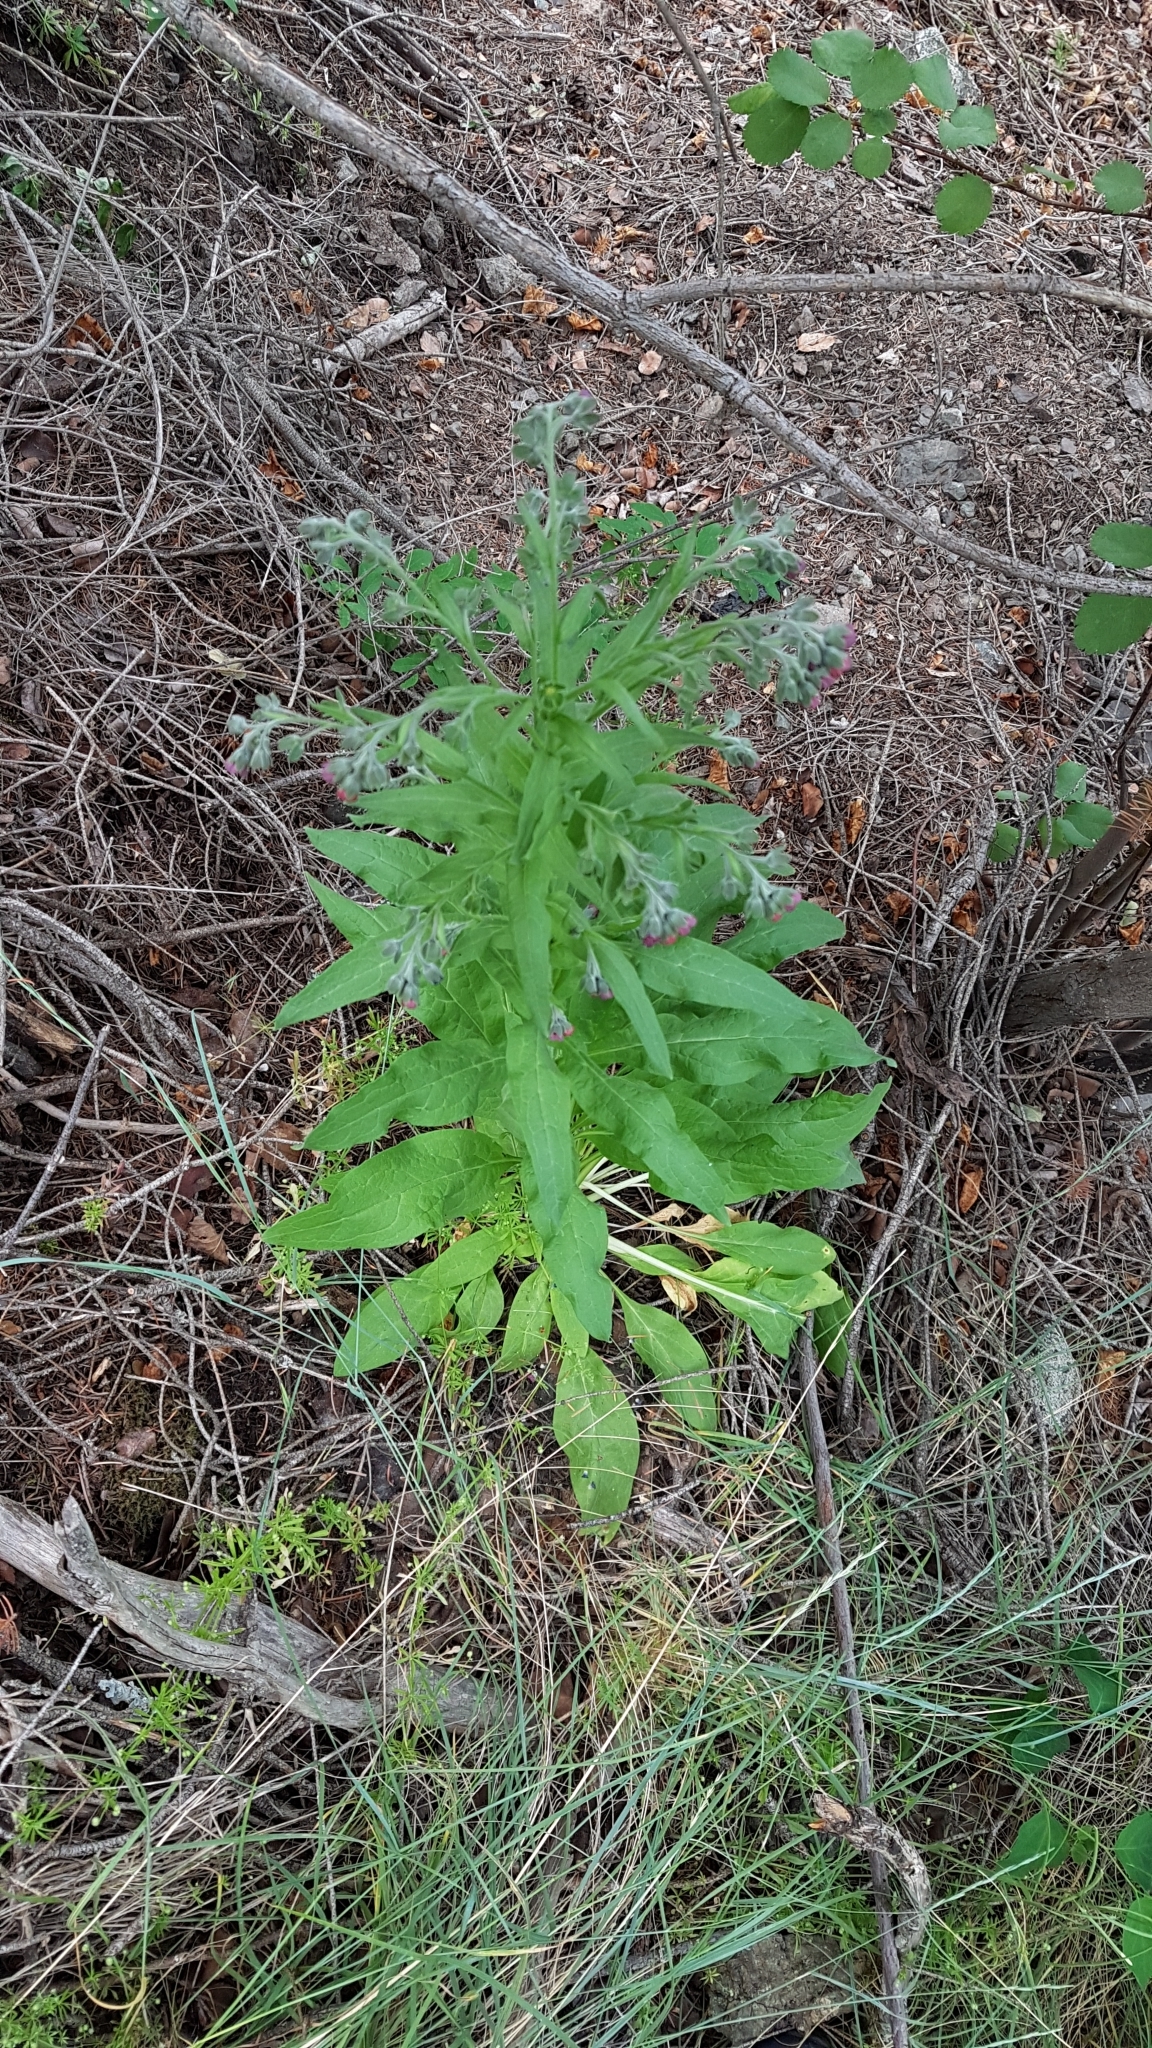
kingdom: Plantae
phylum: Tracheophyta
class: Magnoliopsida
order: Boraginales
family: Boraginaceae
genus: Cynoglossum
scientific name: Cynoglossum officinale
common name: Hound's-tongue
